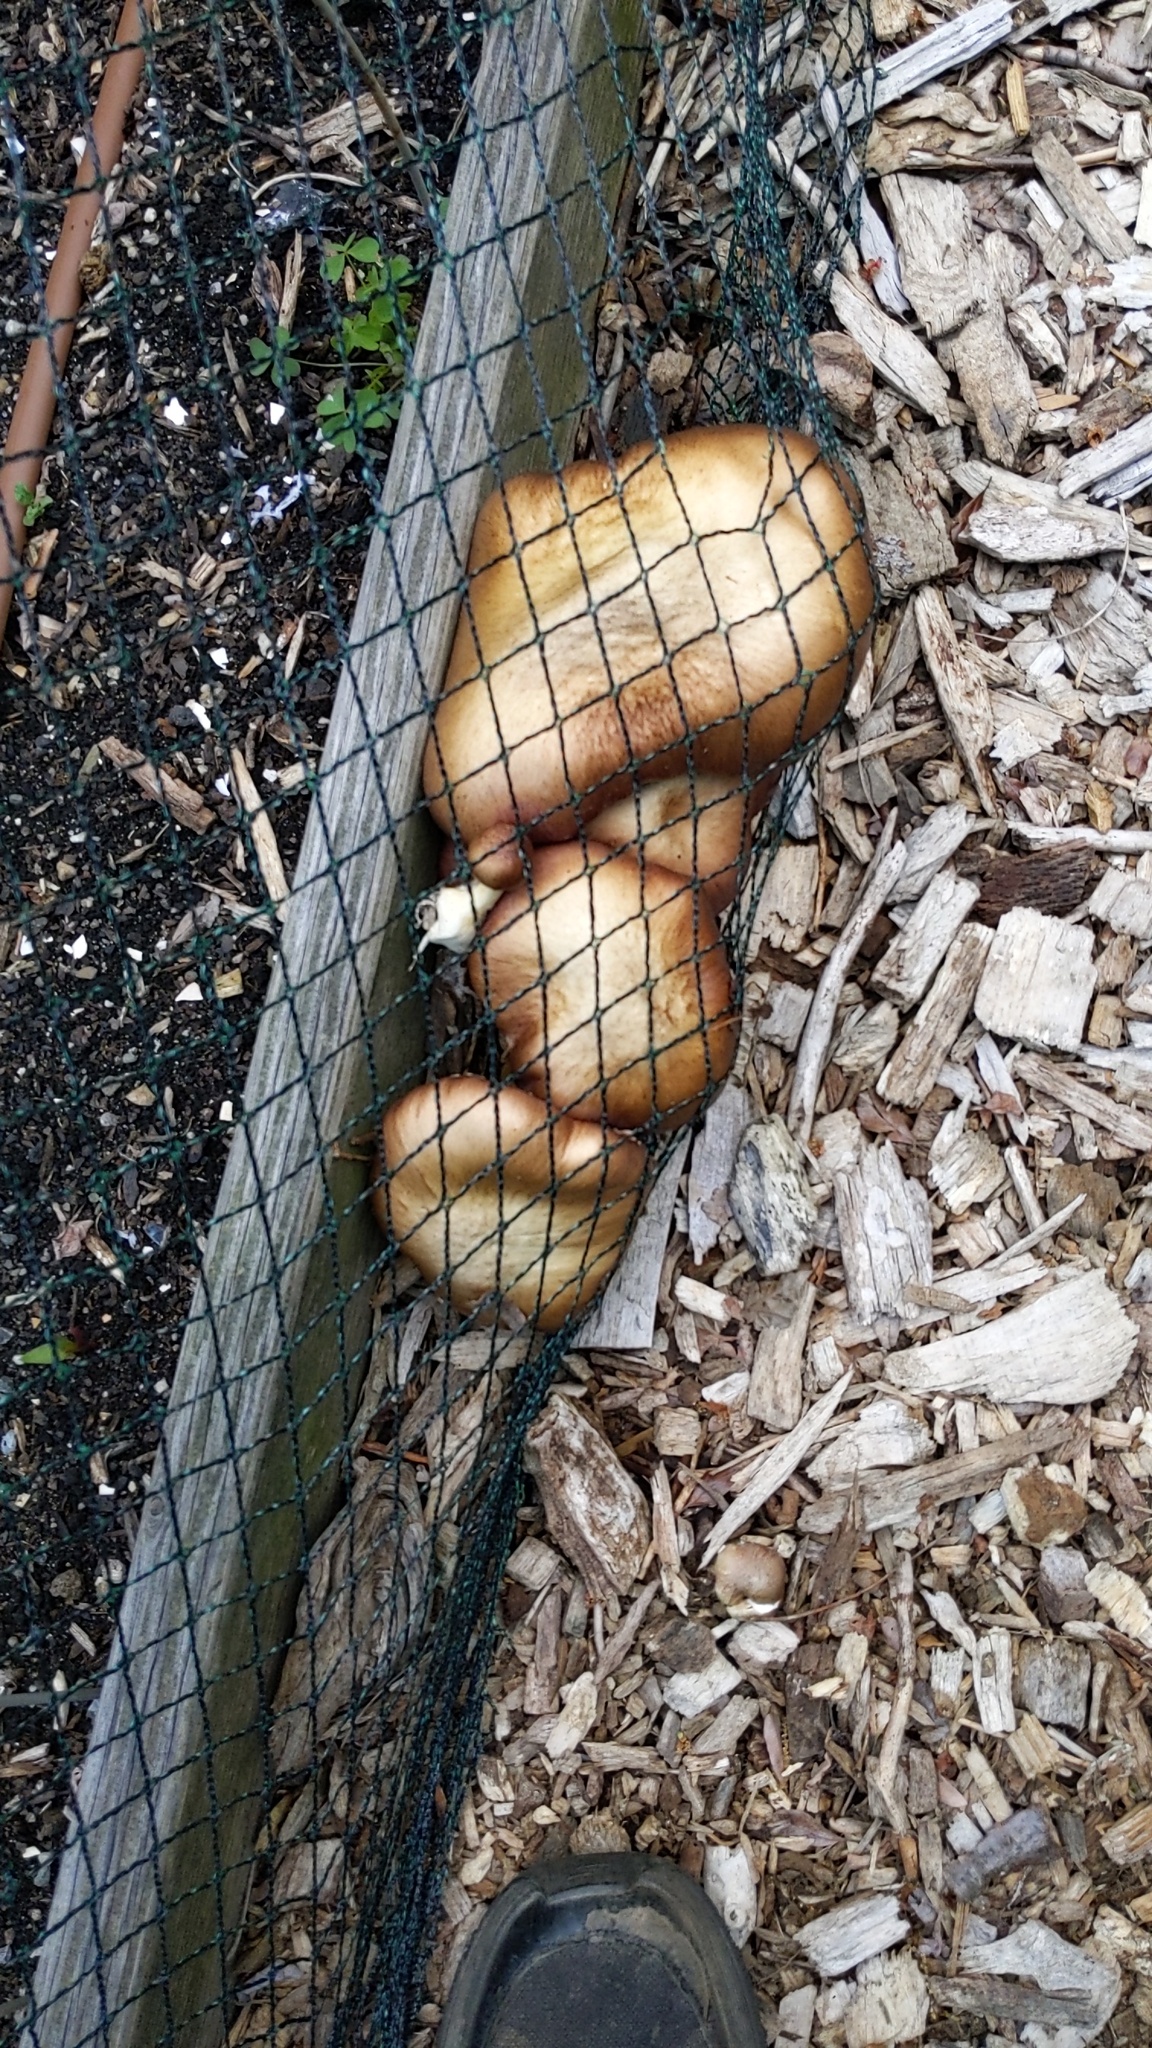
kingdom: Fungi
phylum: Basidiomycota
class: Agaricomycetes
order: Agaricales
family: Strophariaceae
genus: Stropharia
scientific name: Stropharia rugosoannulata
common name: Wine roundhead
